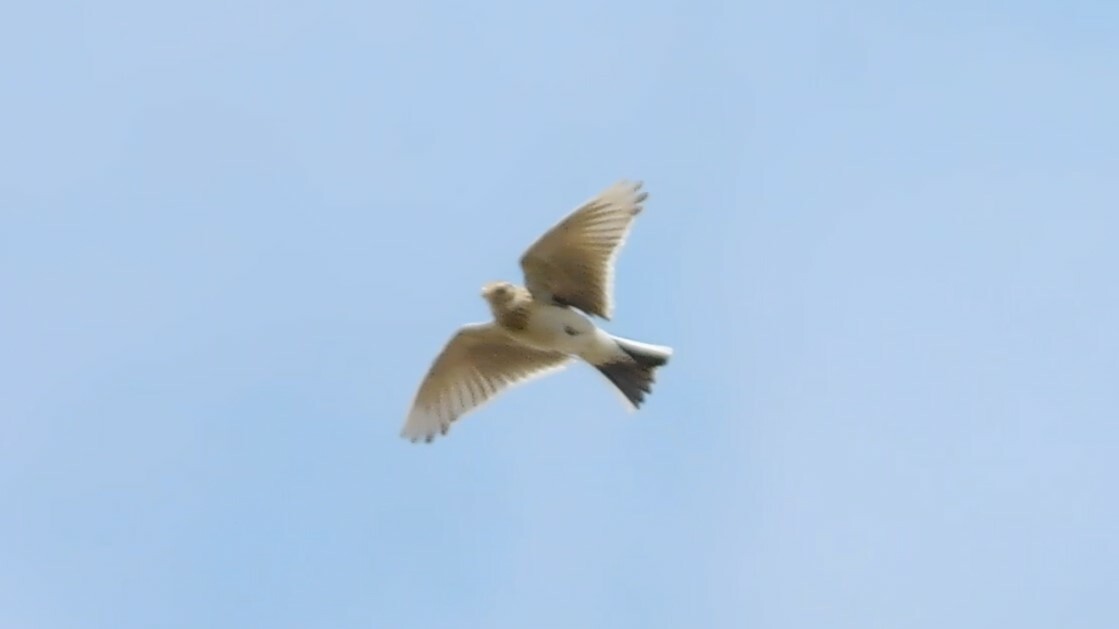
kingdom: Animalia
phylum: Chordata
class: Aves
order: Passeriformes
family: Alaudidae
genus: Alauda
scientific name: Alauda arvensis
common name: Eurasian skylark
